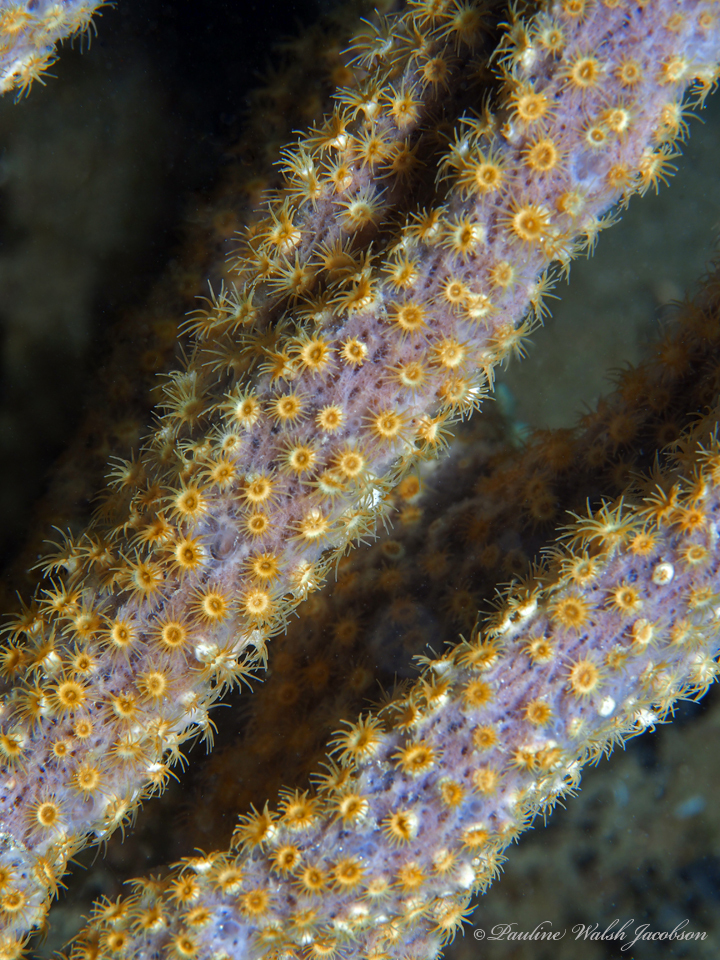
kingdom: Animalia
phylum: Cnidaria
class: Anthozoa
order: Zoantharia
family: Parazoanthidae
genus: Umimayanthus
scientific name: Umimayanthus parasiticus
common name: Sponge zoanthid
